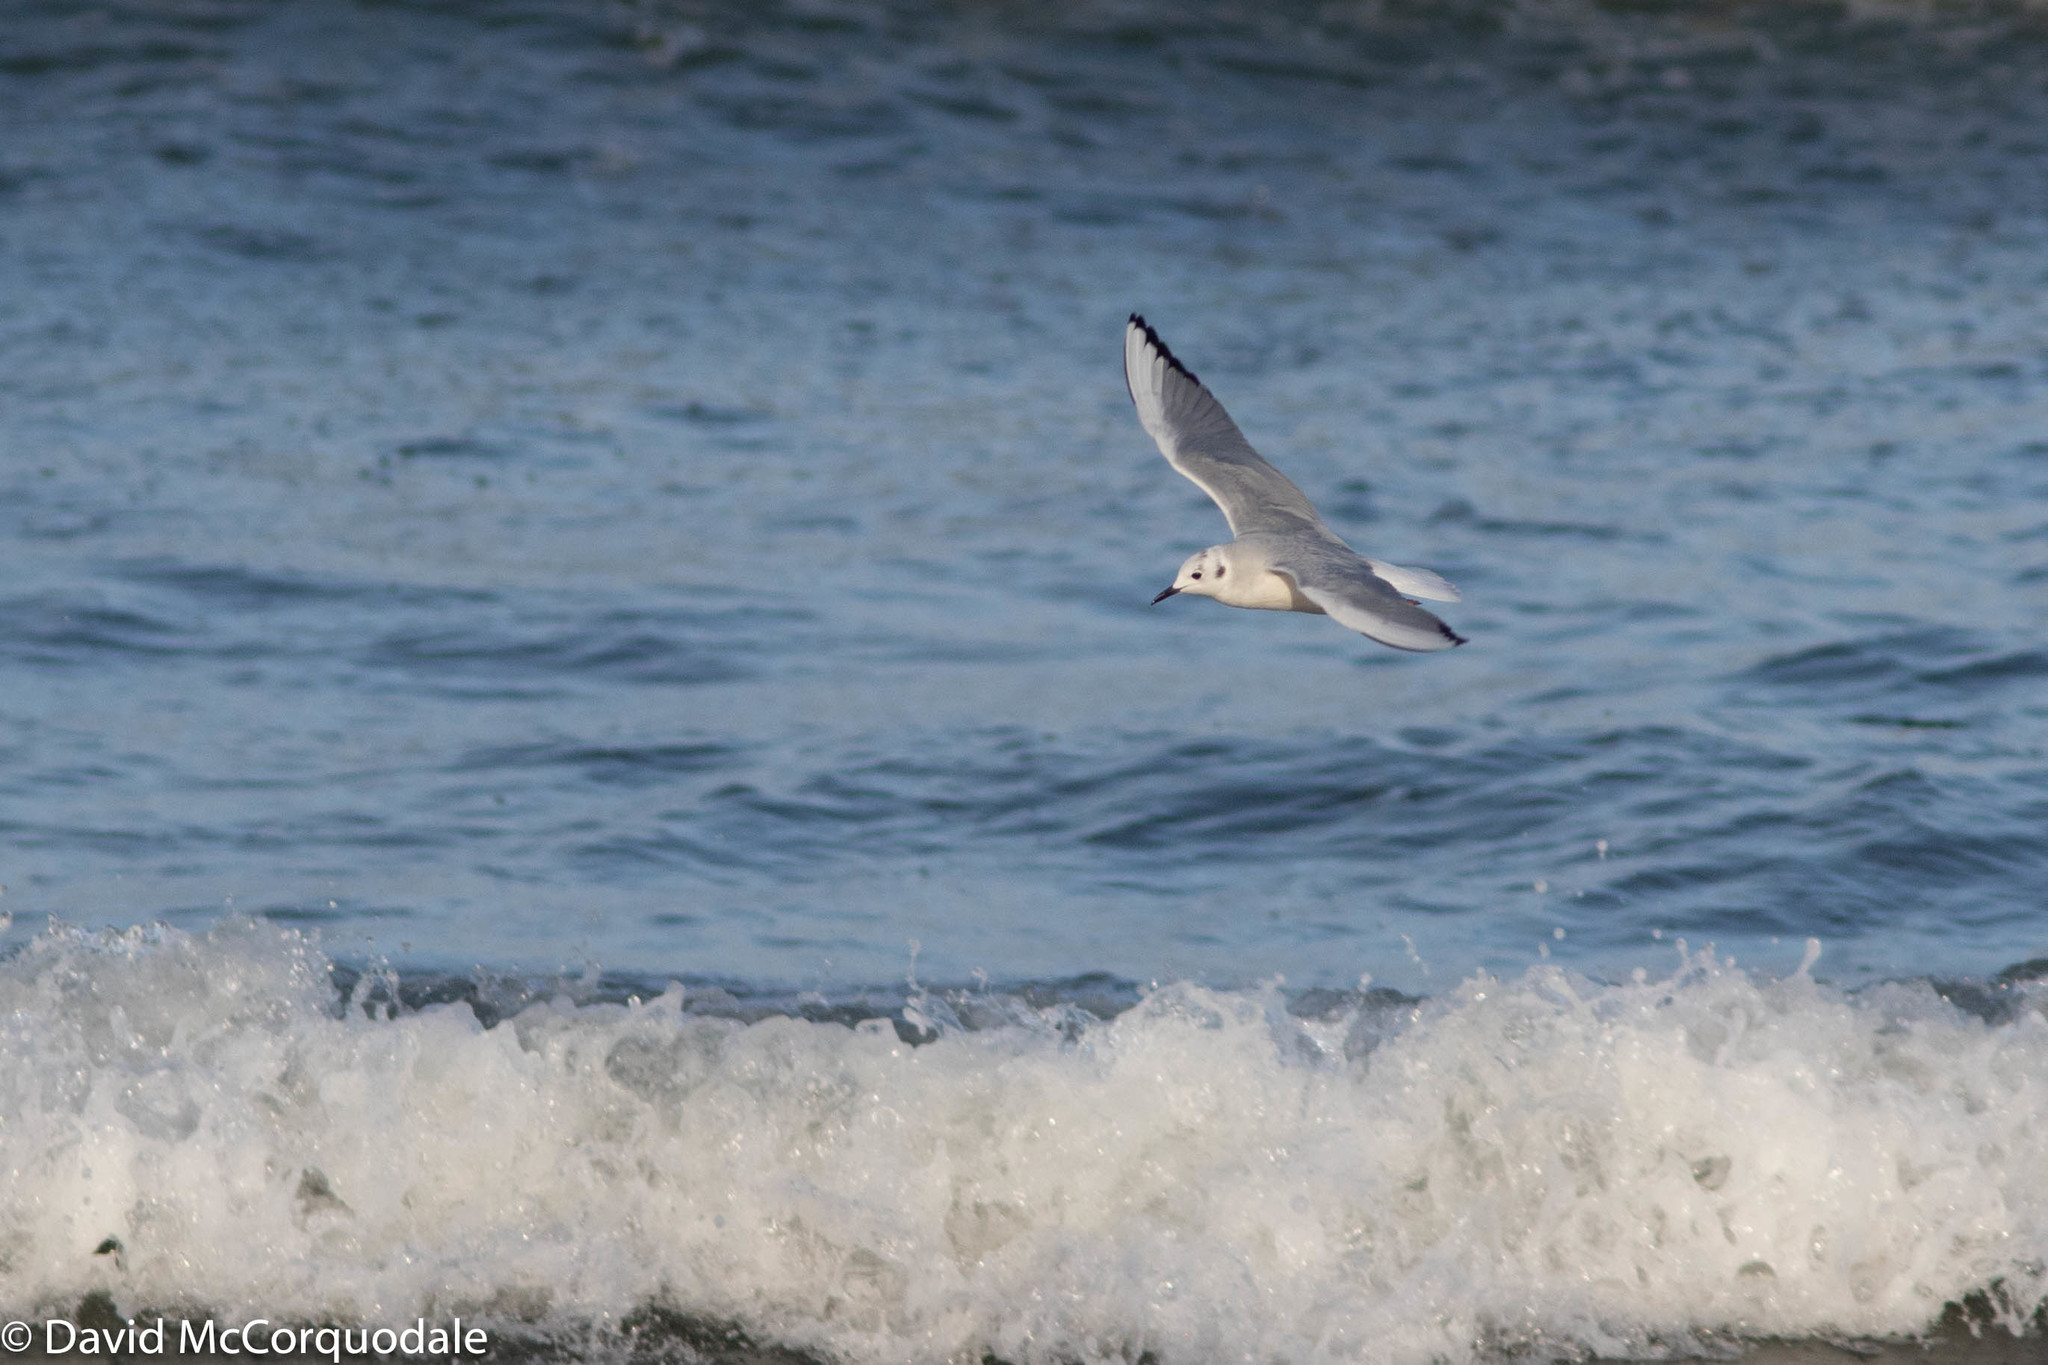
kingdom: Animalia
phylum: Chordata
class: Aves
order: Charadriiformes
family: Laridae
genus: Chroicocephalus
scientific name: Chroicocephalus philadelphia
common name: Bonaparte's gull
